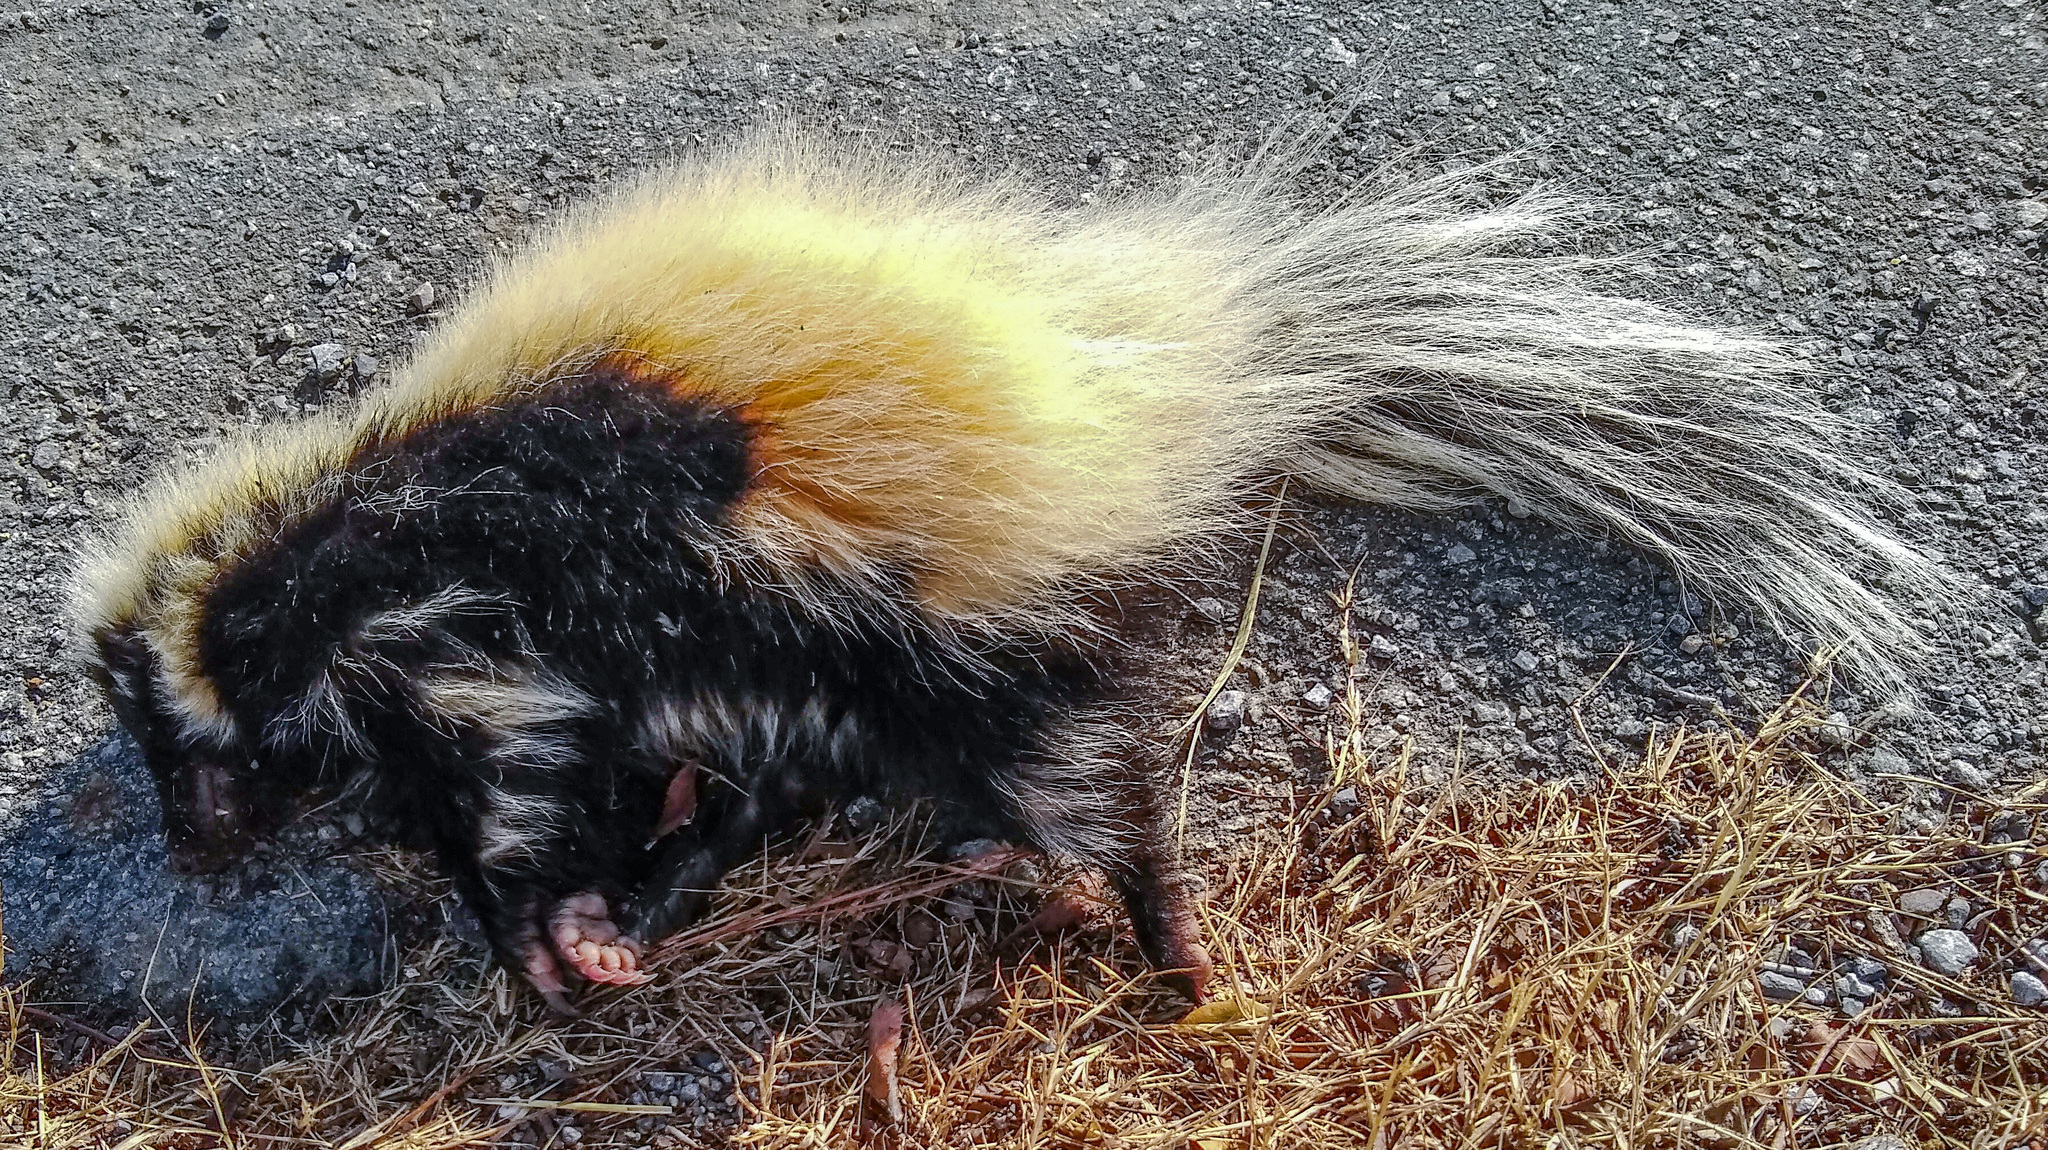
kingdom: Animalia
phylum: Chordata
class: Mammalia
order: Carnivora
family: Mephitidae
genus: Mephitis
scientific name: Mephitis mephitis
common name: Striped skunk
